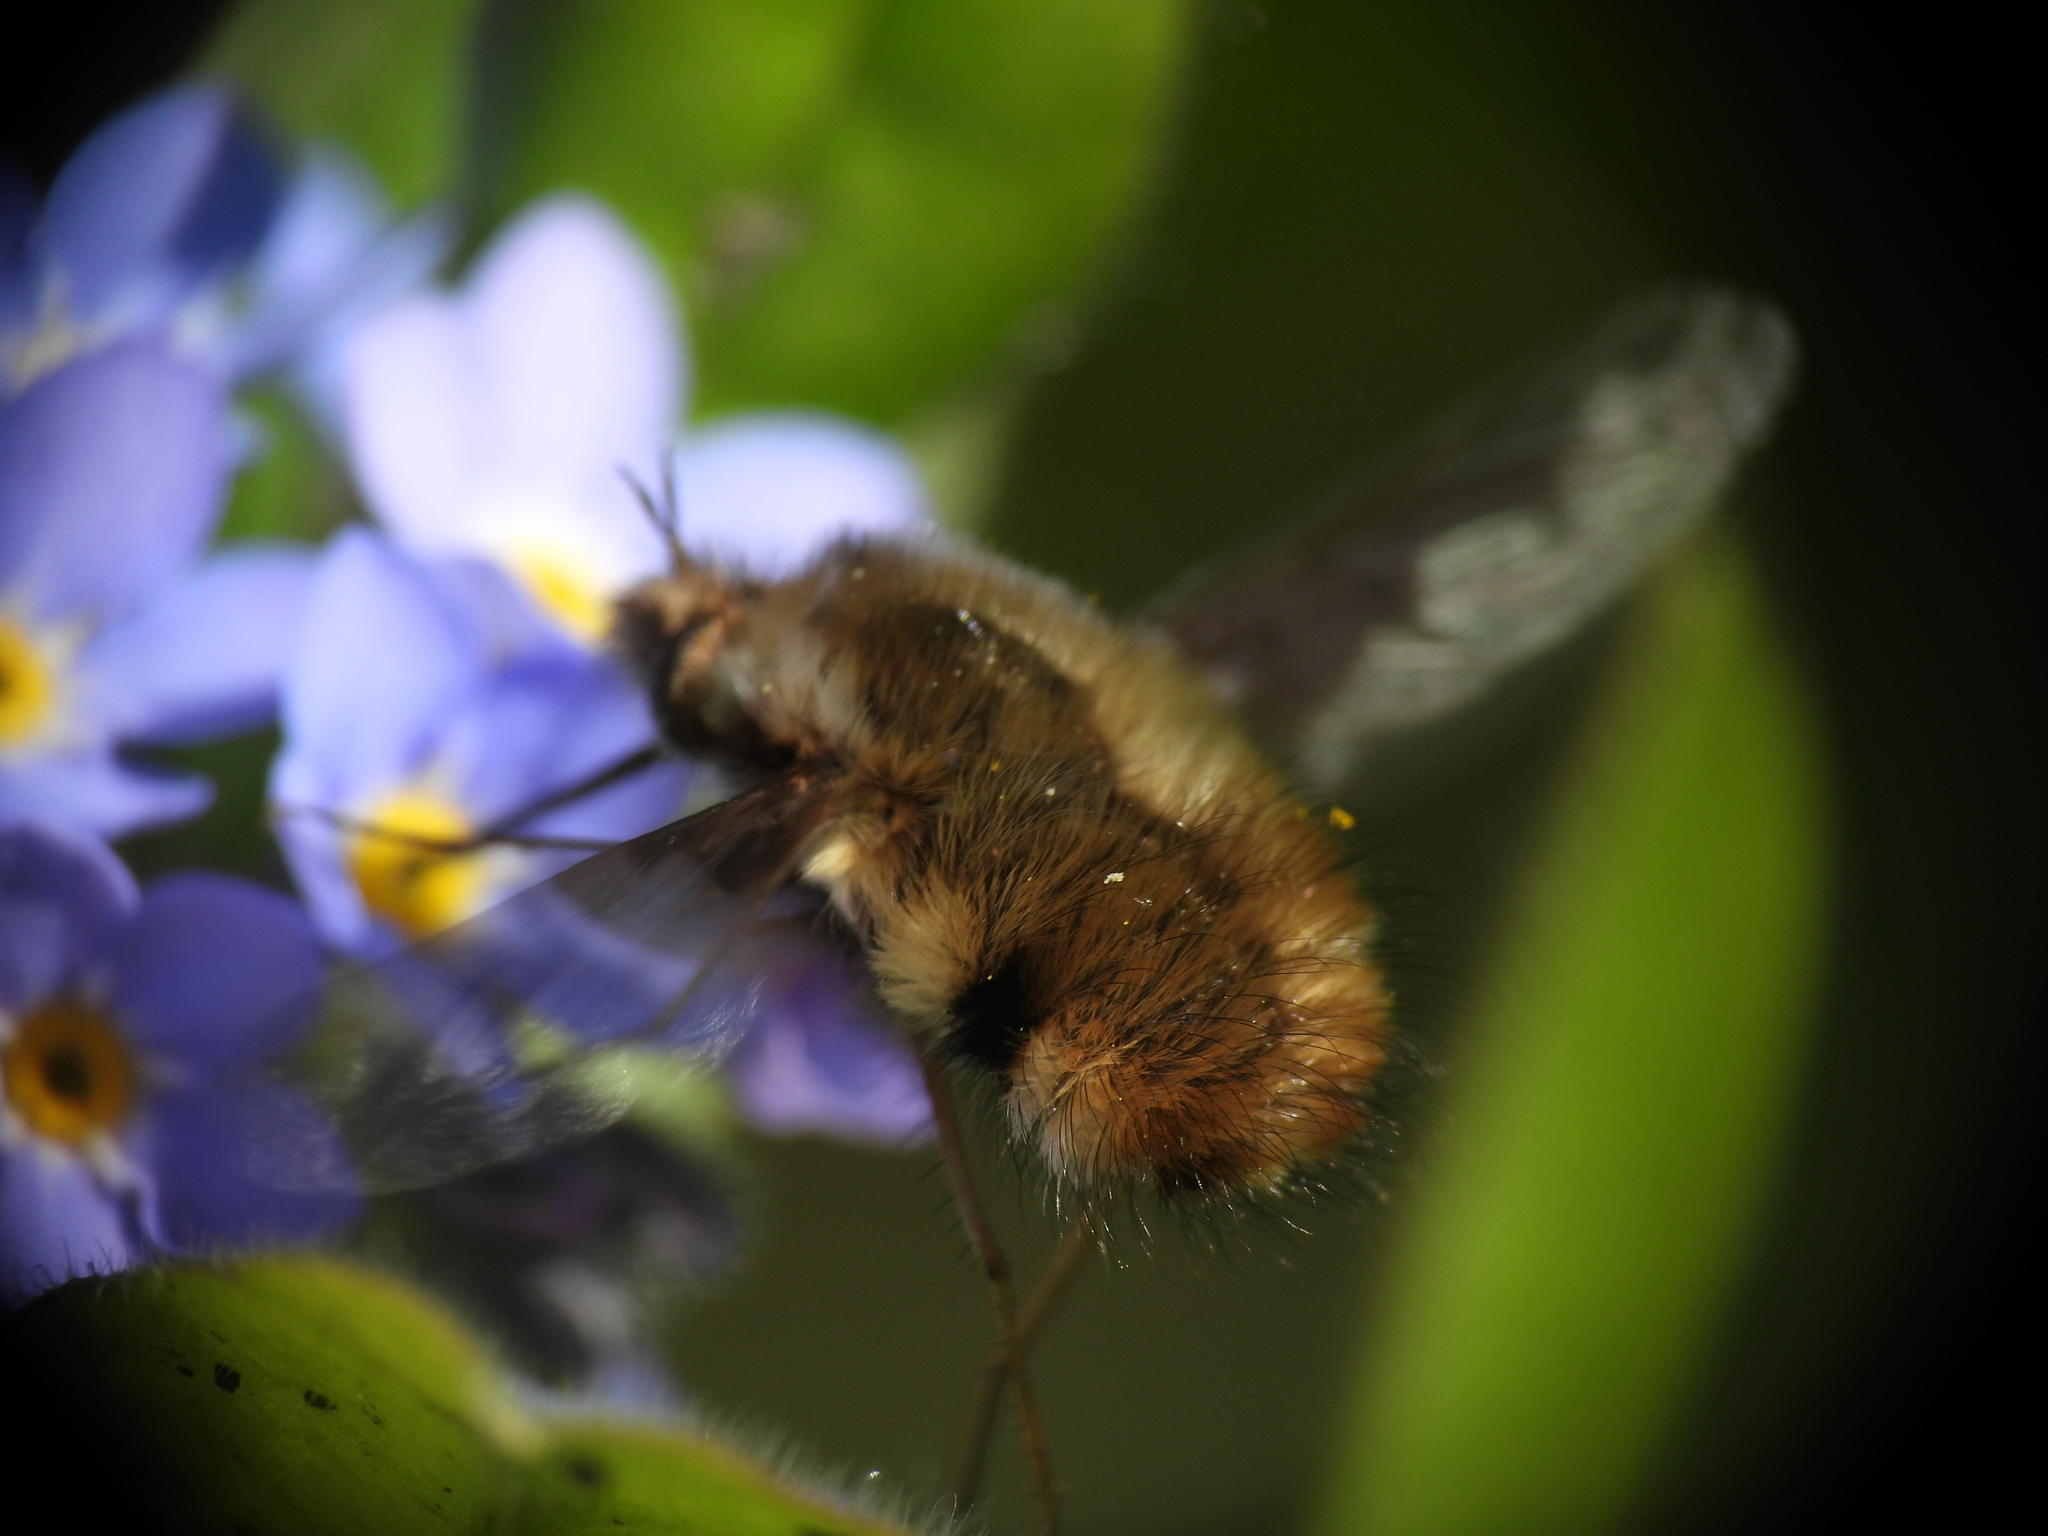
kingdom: Animalia
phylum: Arthropoda
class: Insecta
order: Diptera
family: Bombyliidae
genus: Bombylius
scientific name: Bombylius major
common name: Bee fly
